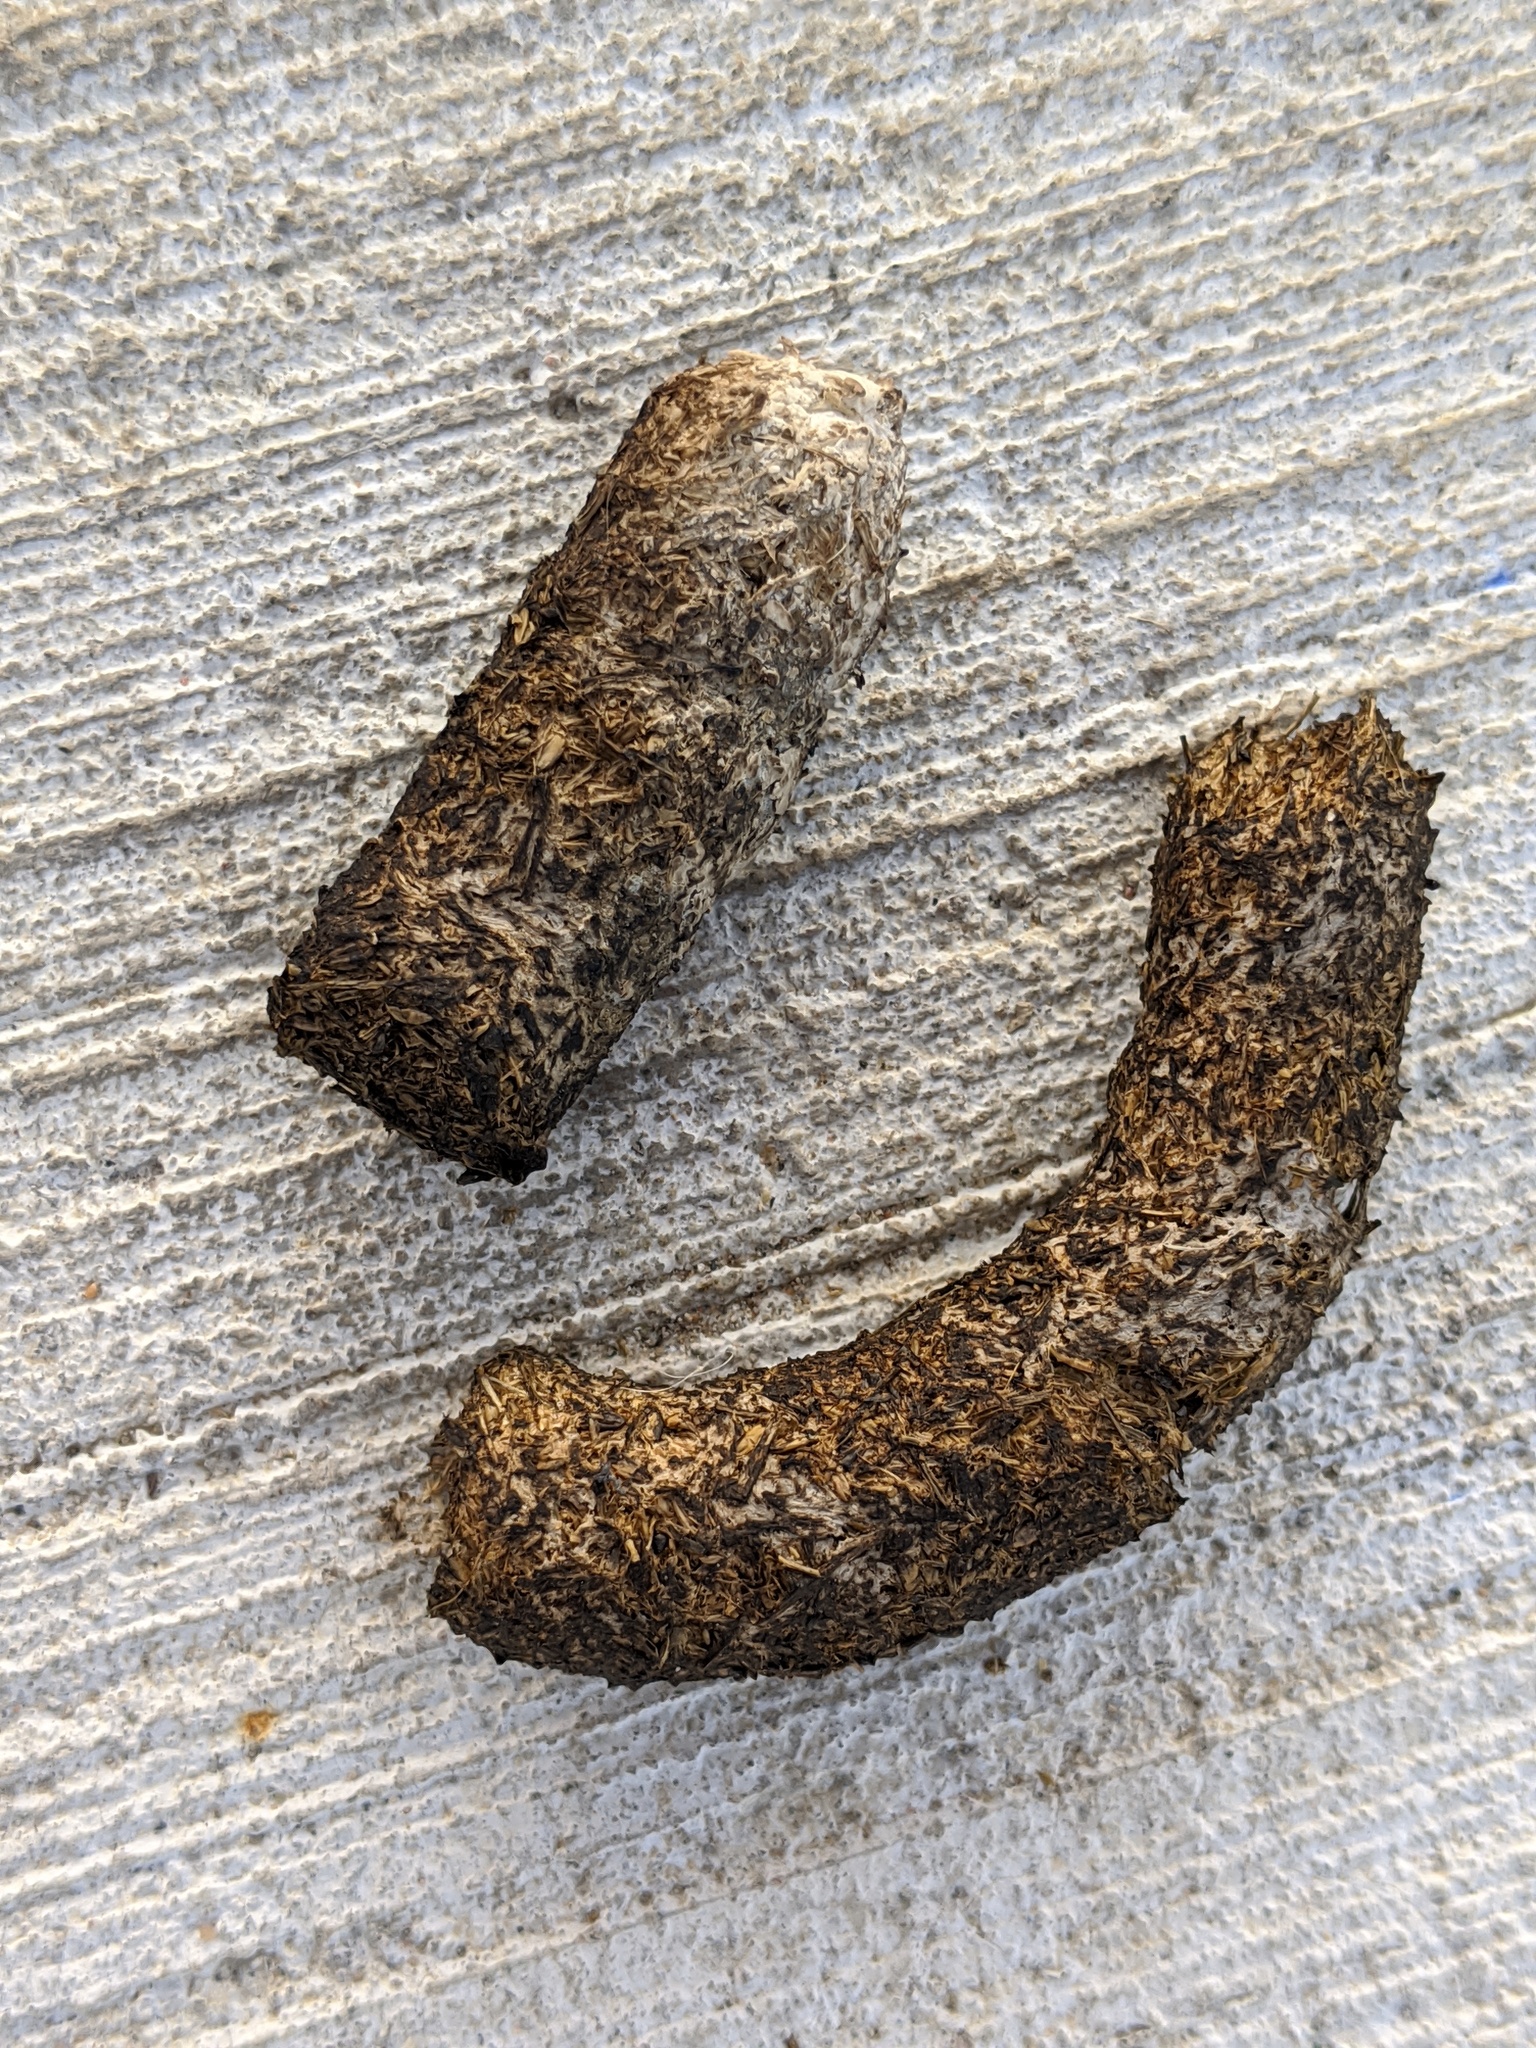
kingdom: Animalia
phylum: Chordata
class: Aves
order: Anseriformes
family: Anatidae
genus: Branta
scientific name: Branta canadensis
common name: Canada goose
